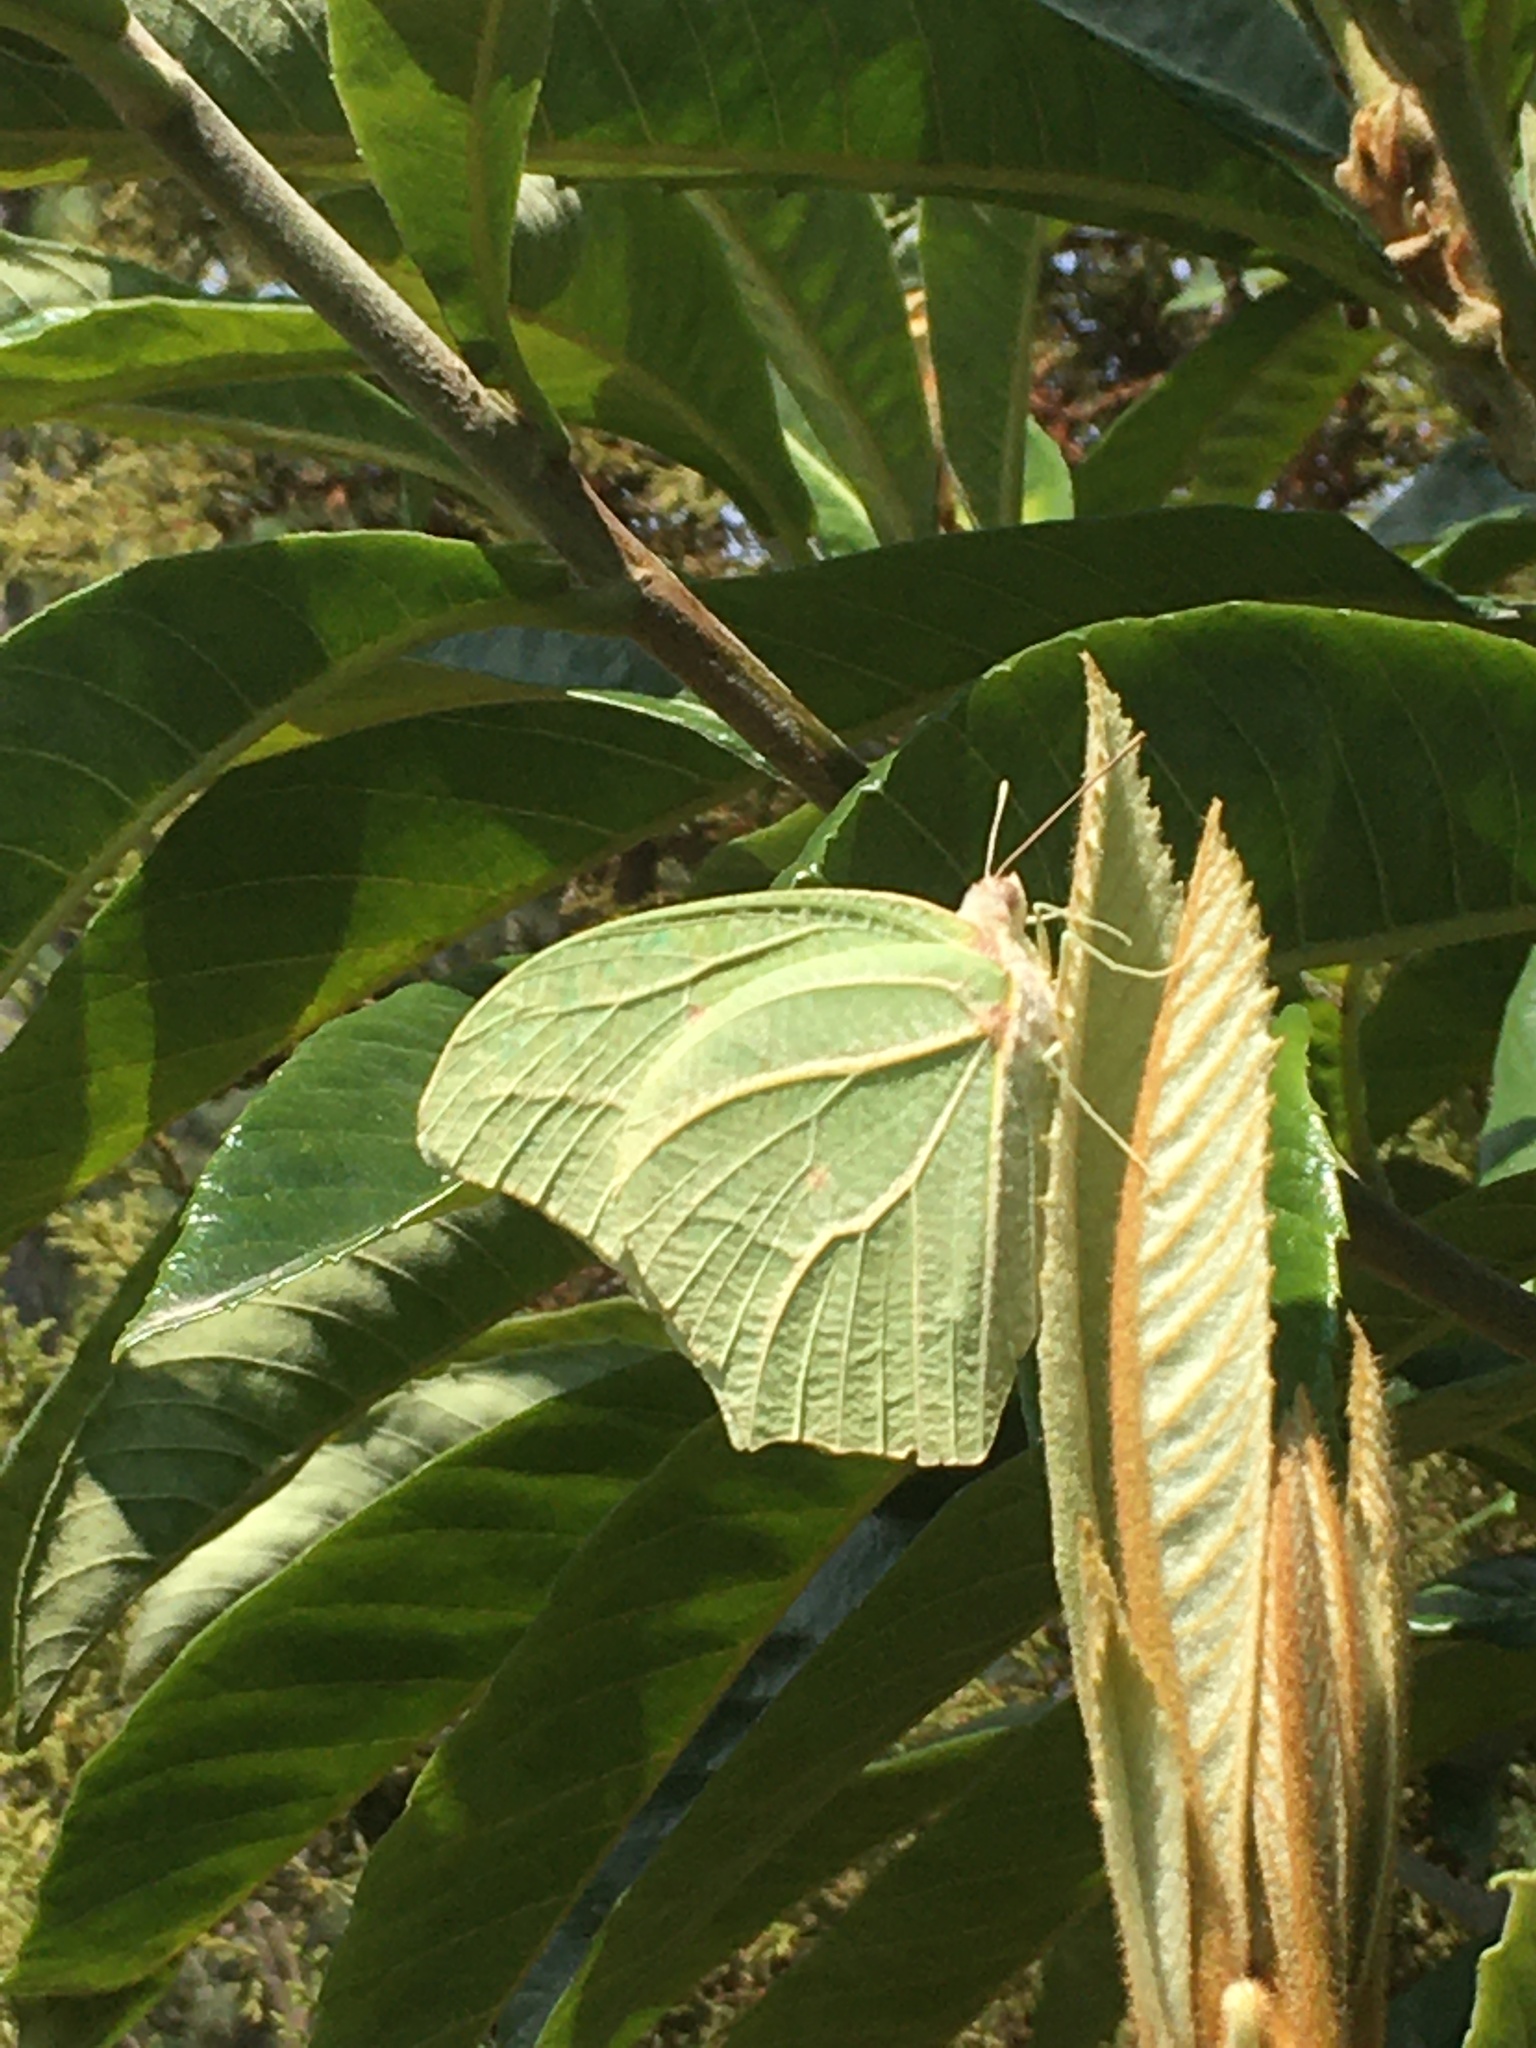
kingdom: Animalia
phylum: Arthropoda
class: Insecta
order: Lepidoptera
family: Pieridae
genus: Anteos
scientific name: Anteos clorinde
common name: White angled sulphur
